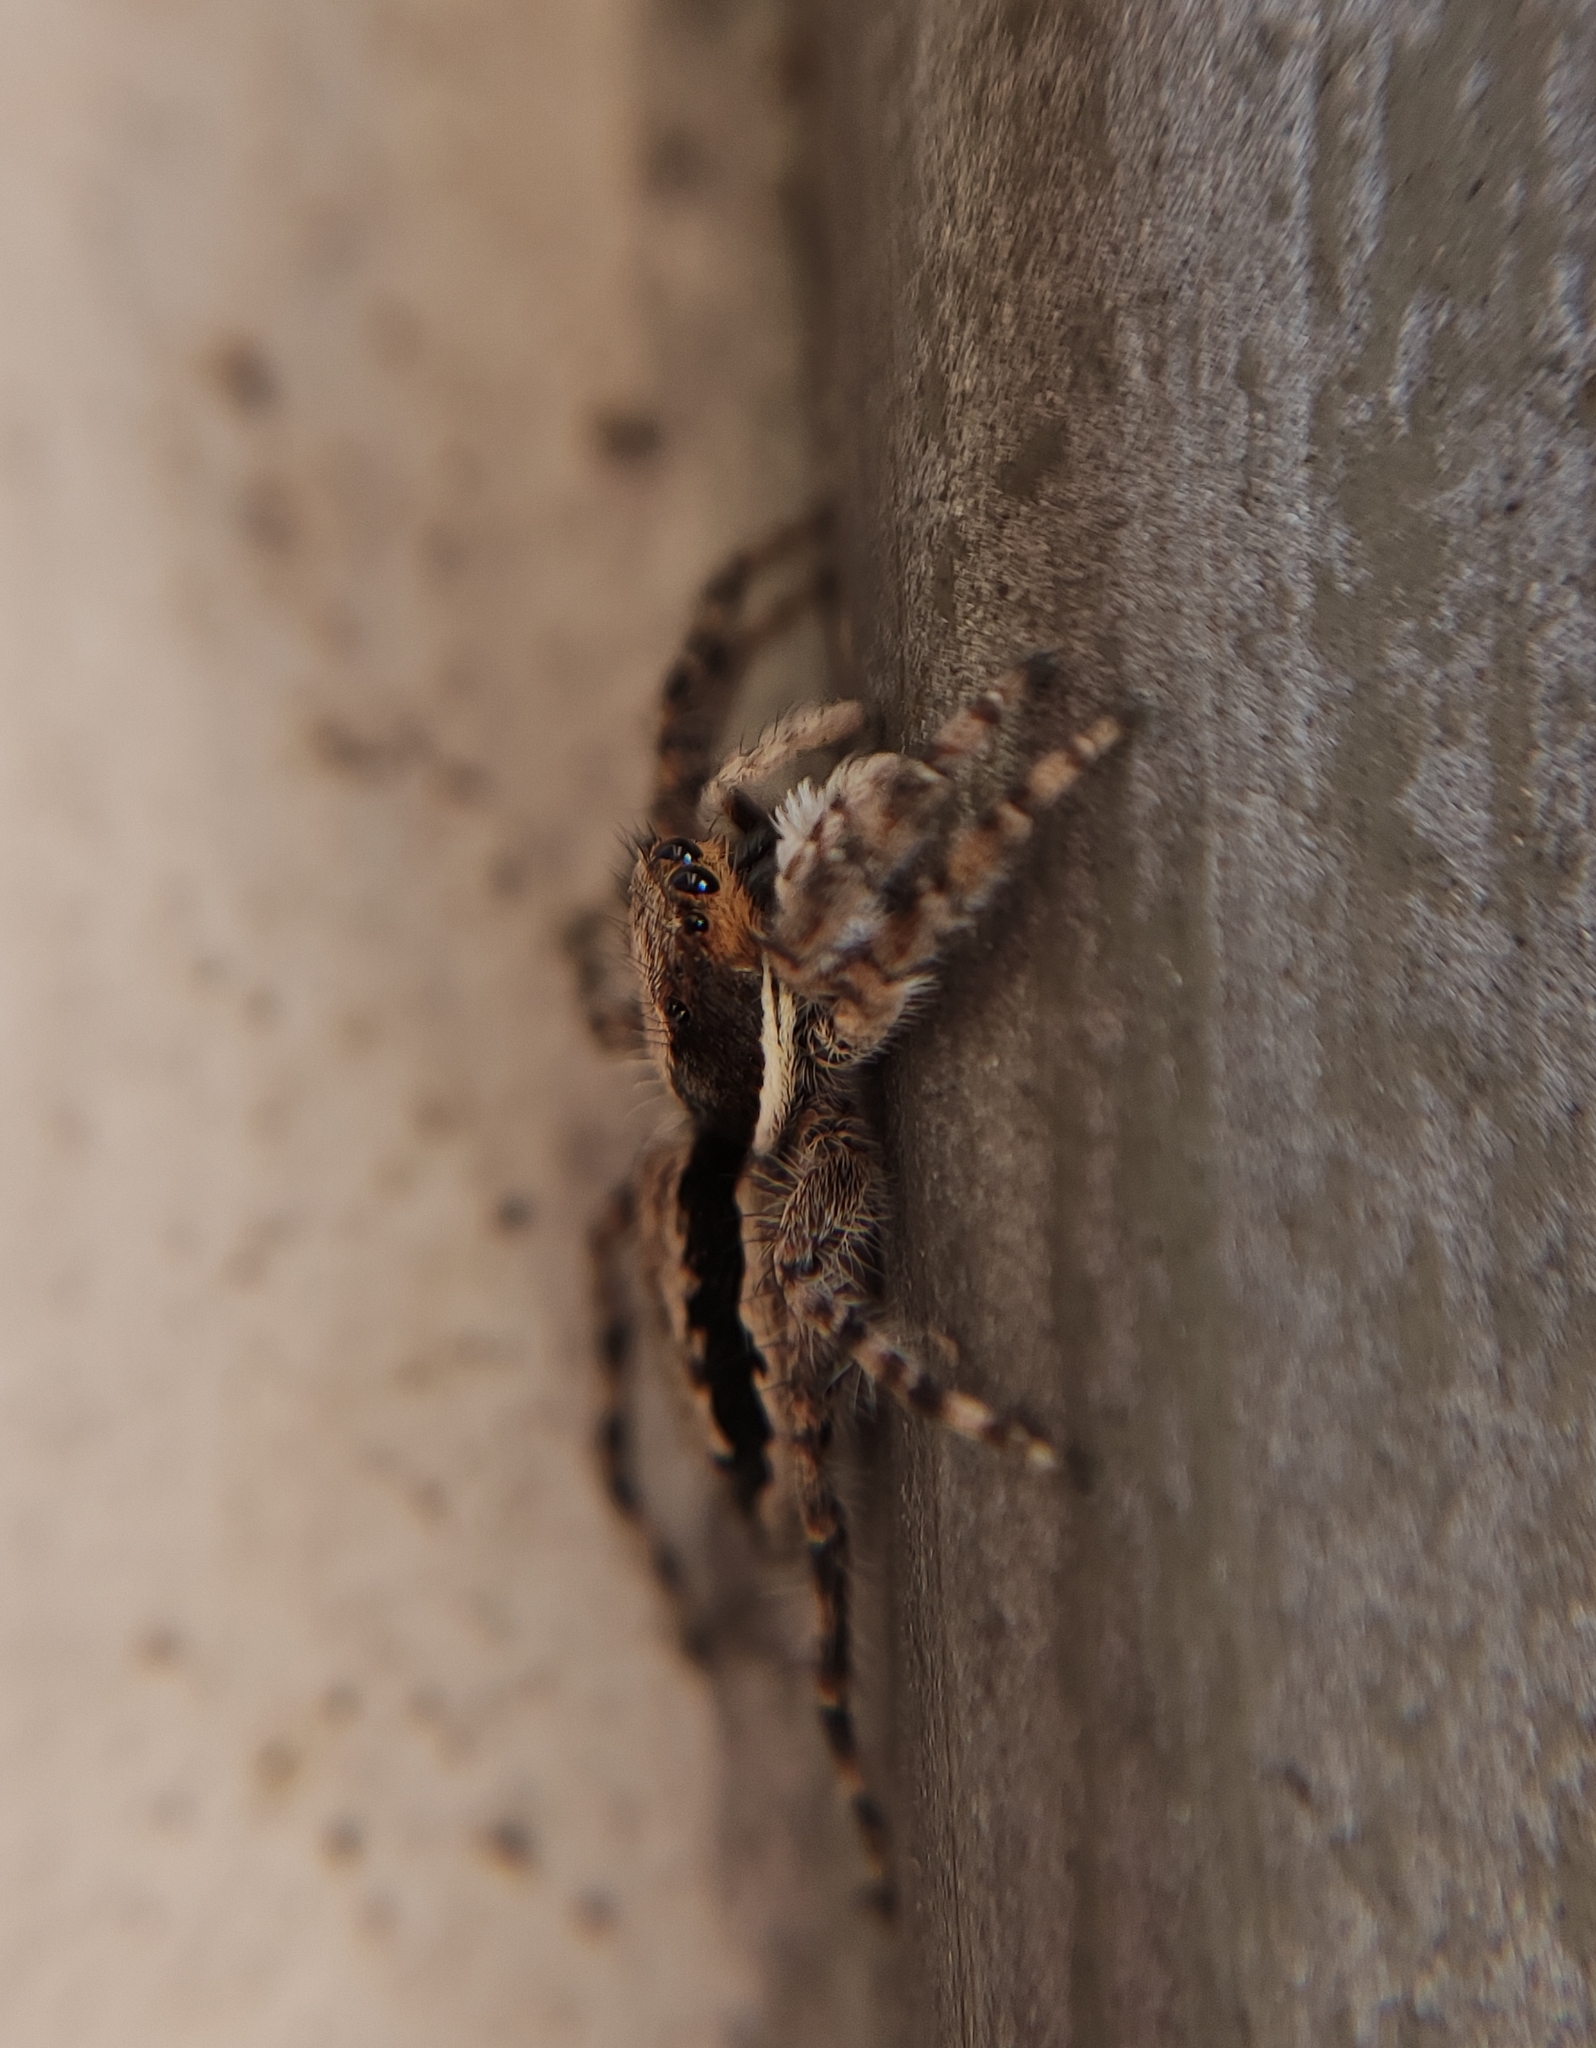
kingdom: Animalia
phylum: Arthropoda
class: Arachnida
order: Araneae
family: Salticidae
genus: Menemerus
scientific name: Menemerus bivittatus
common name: Gray wall jumper
